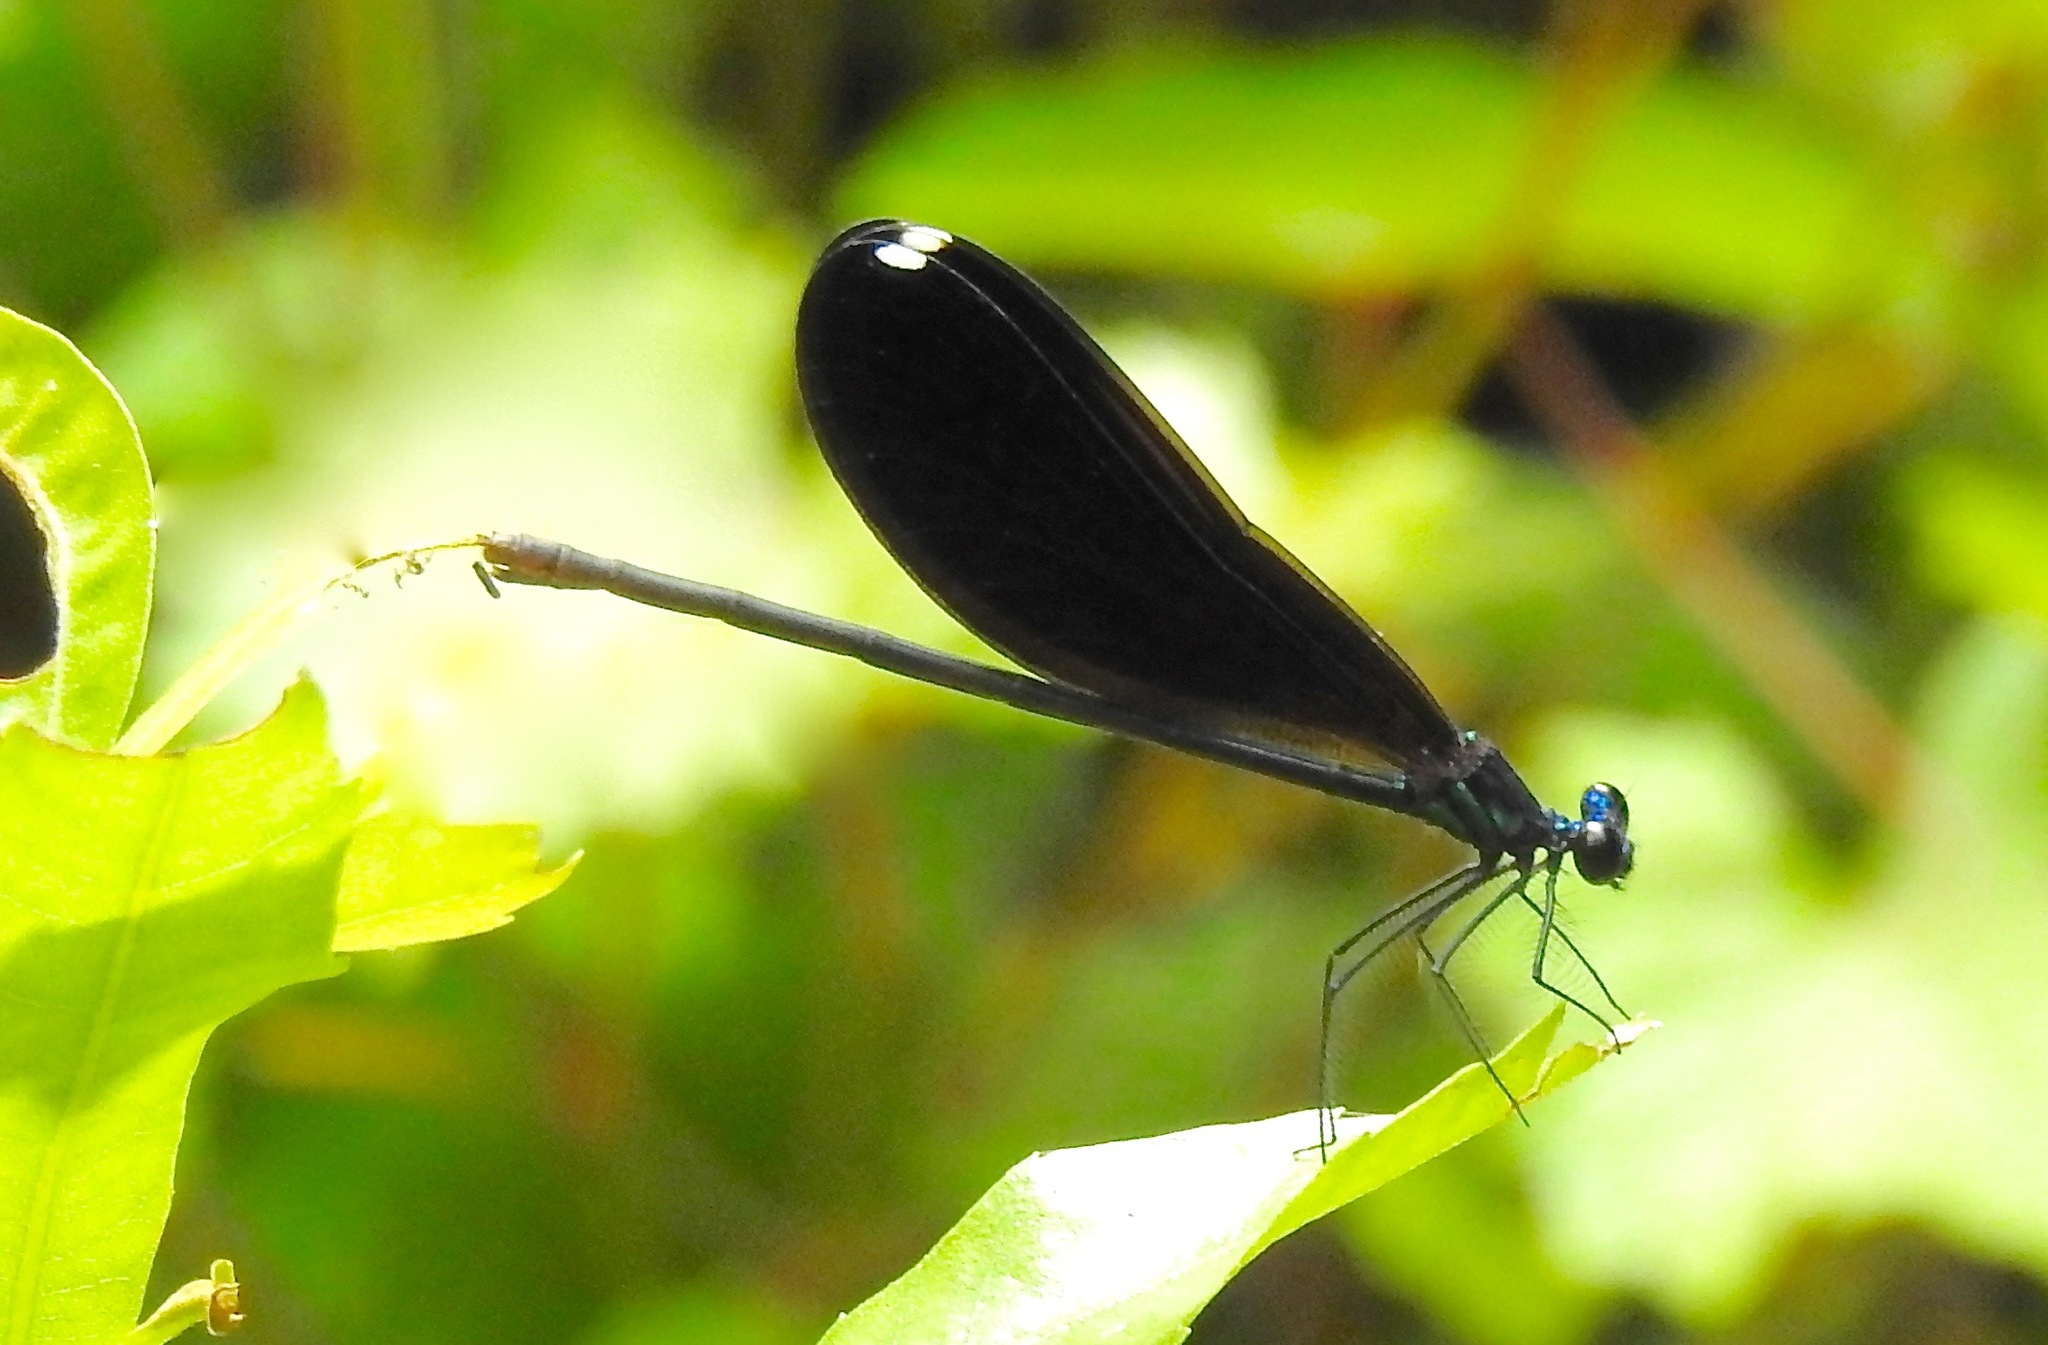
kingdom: Animalia
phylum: Arthropoda
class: Insecta
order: Odonata
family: Calopterygidae
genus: Calopteryx
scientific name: Calopteryx maculata
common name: Ebony jewelwing
